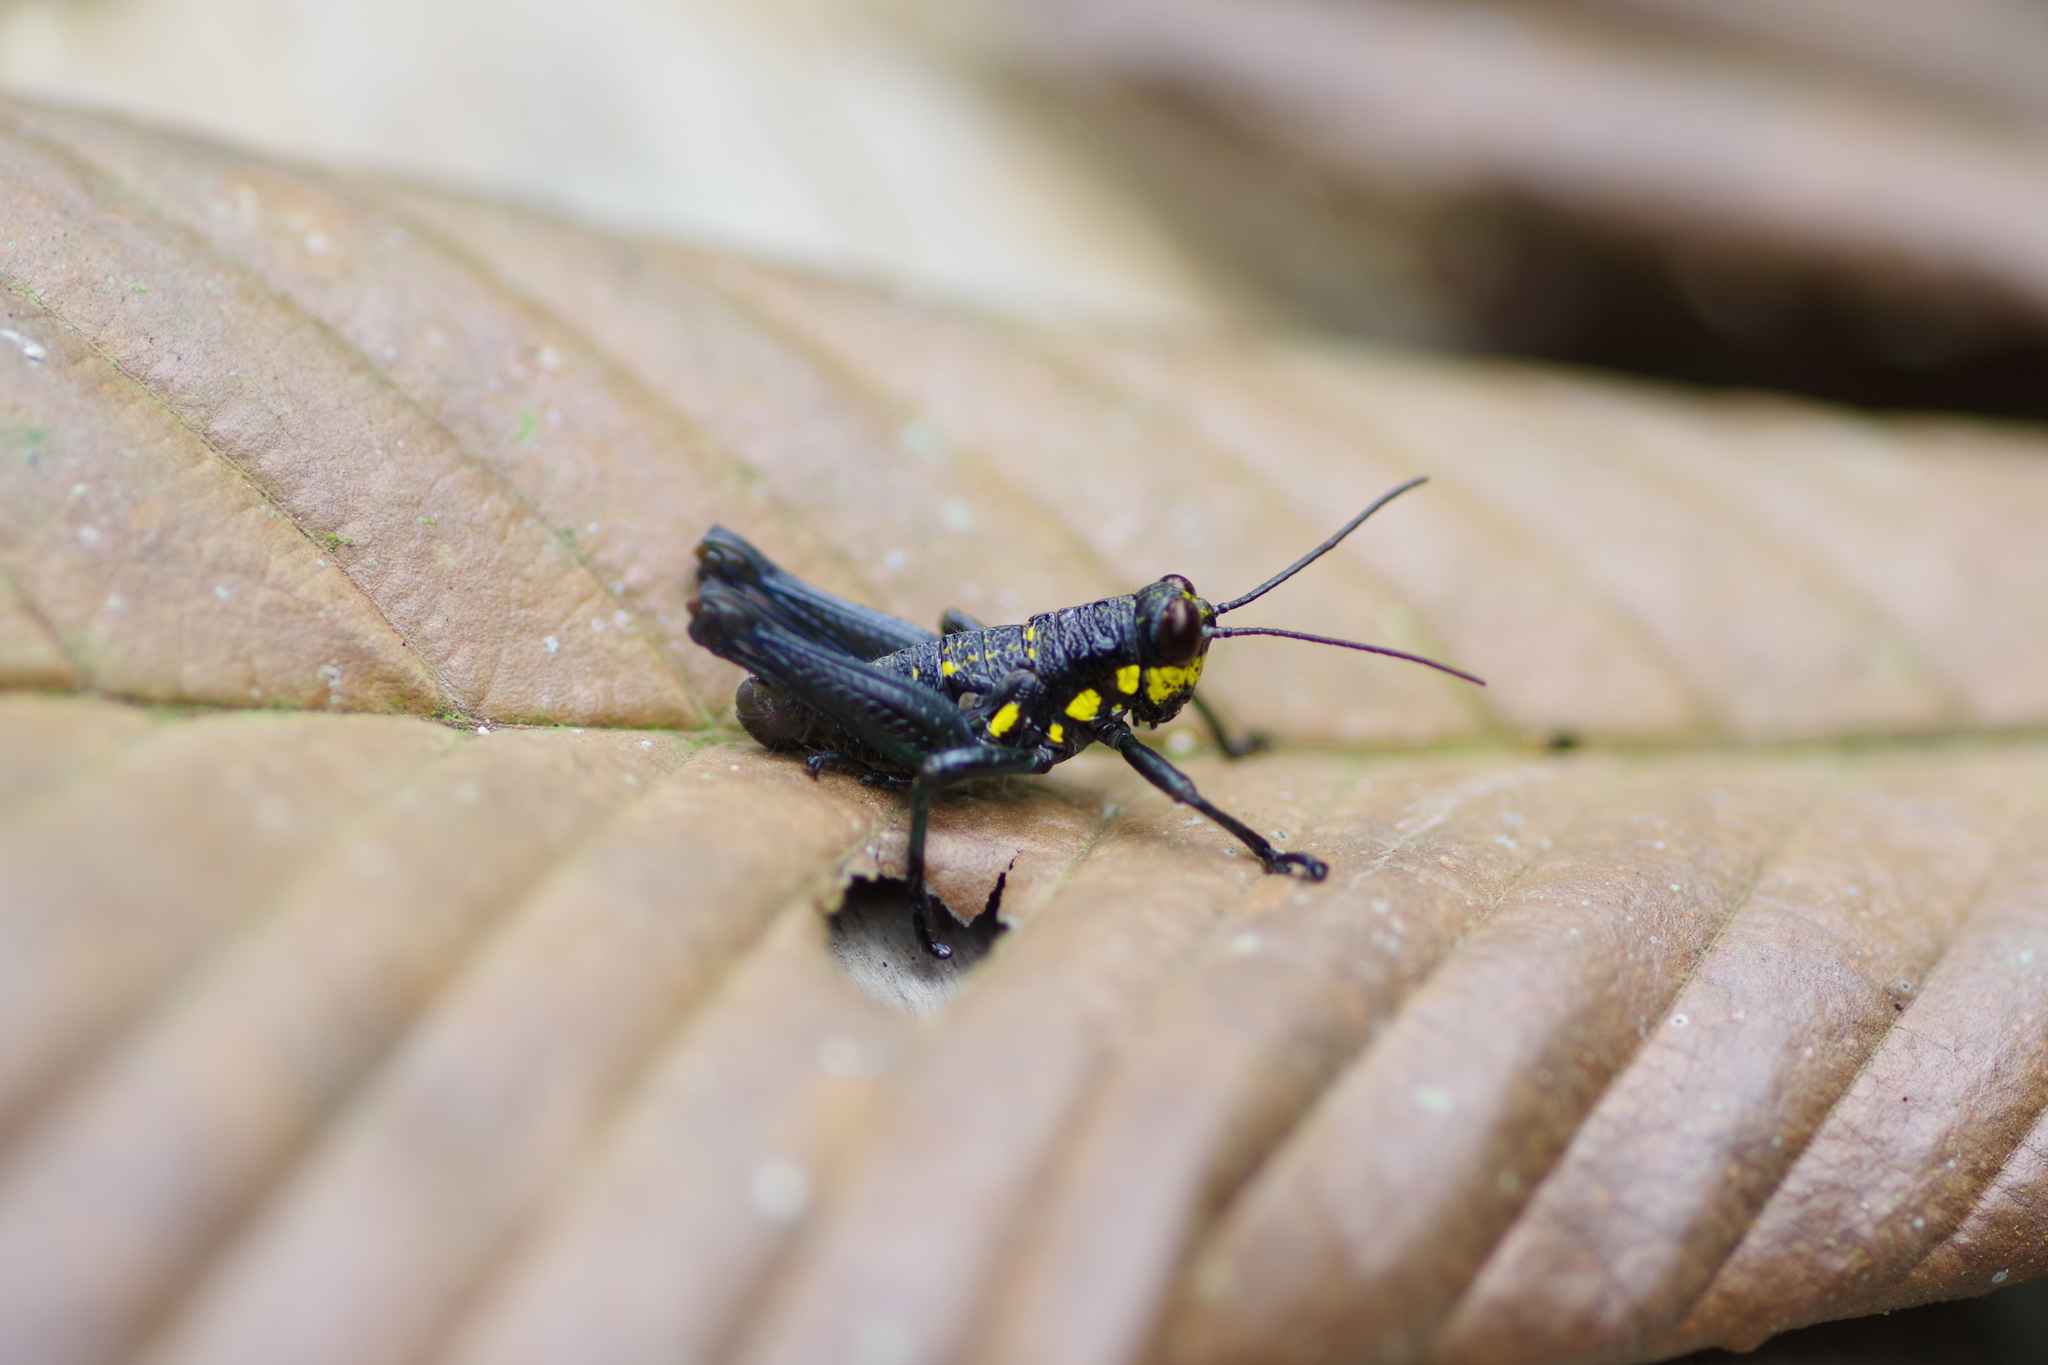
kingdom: Animalia
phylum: Arthropoda
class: Insecta
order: Orthoptera
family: Acrididae
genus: Rhachicreagra
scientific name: Rhachicreagra obsidian
